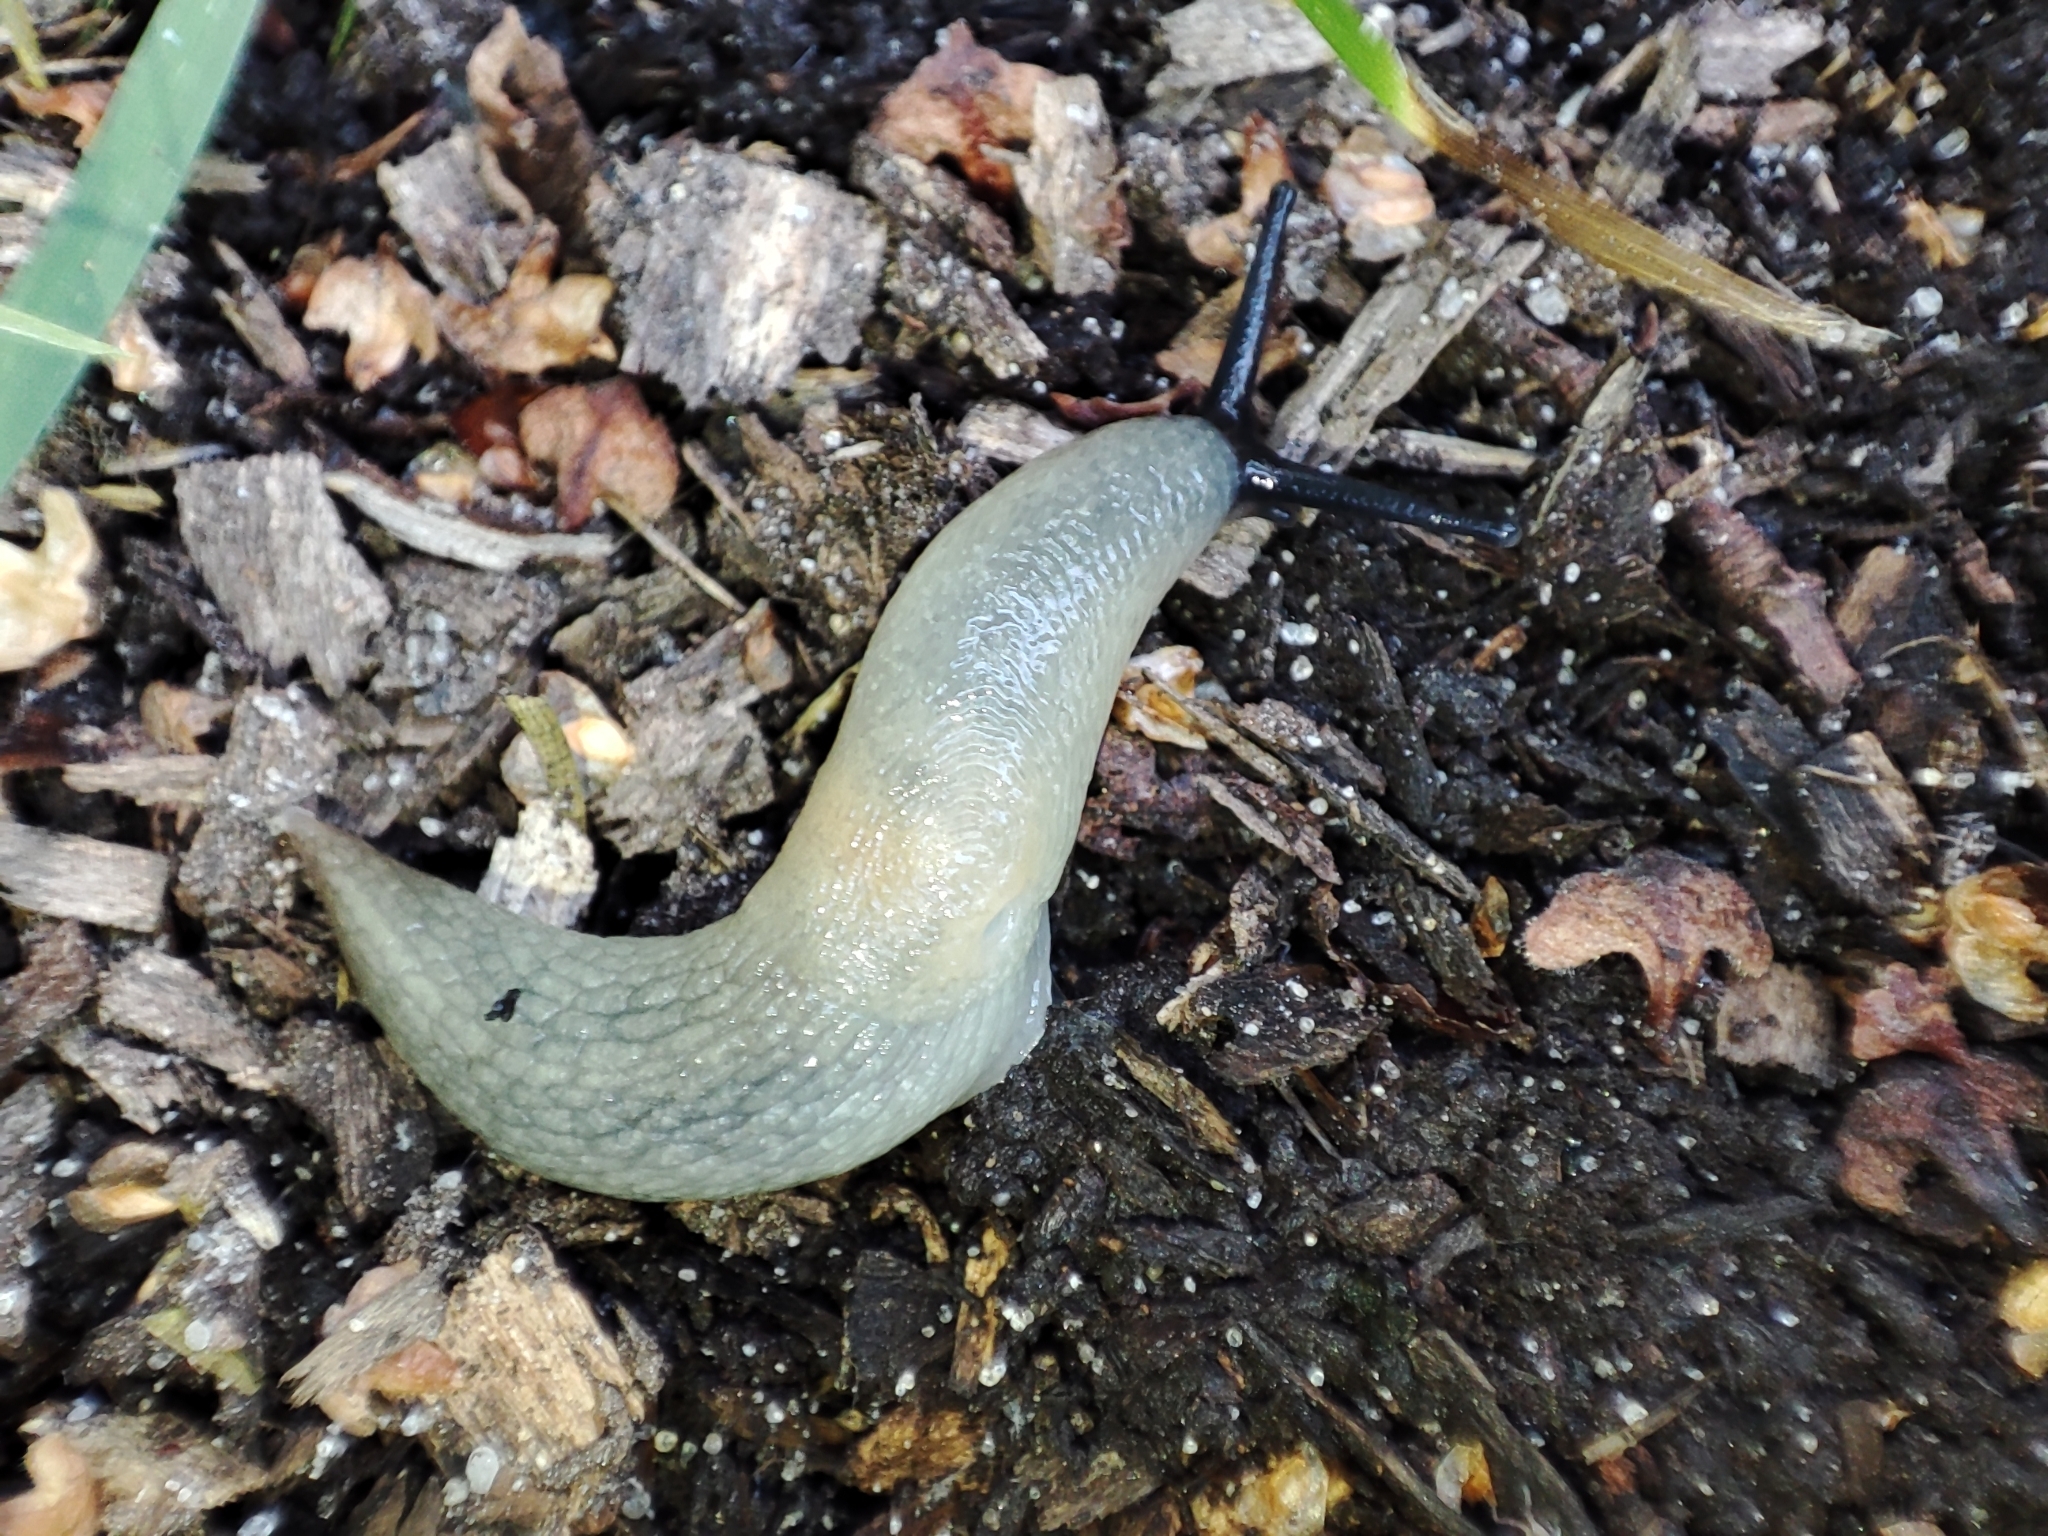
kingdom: Animalia
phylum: Mollusca
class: Gastropoda
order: Stylommatophora
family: Agriolimacidae
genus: Krynickillus
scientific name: Krynickillus melanocephalus
